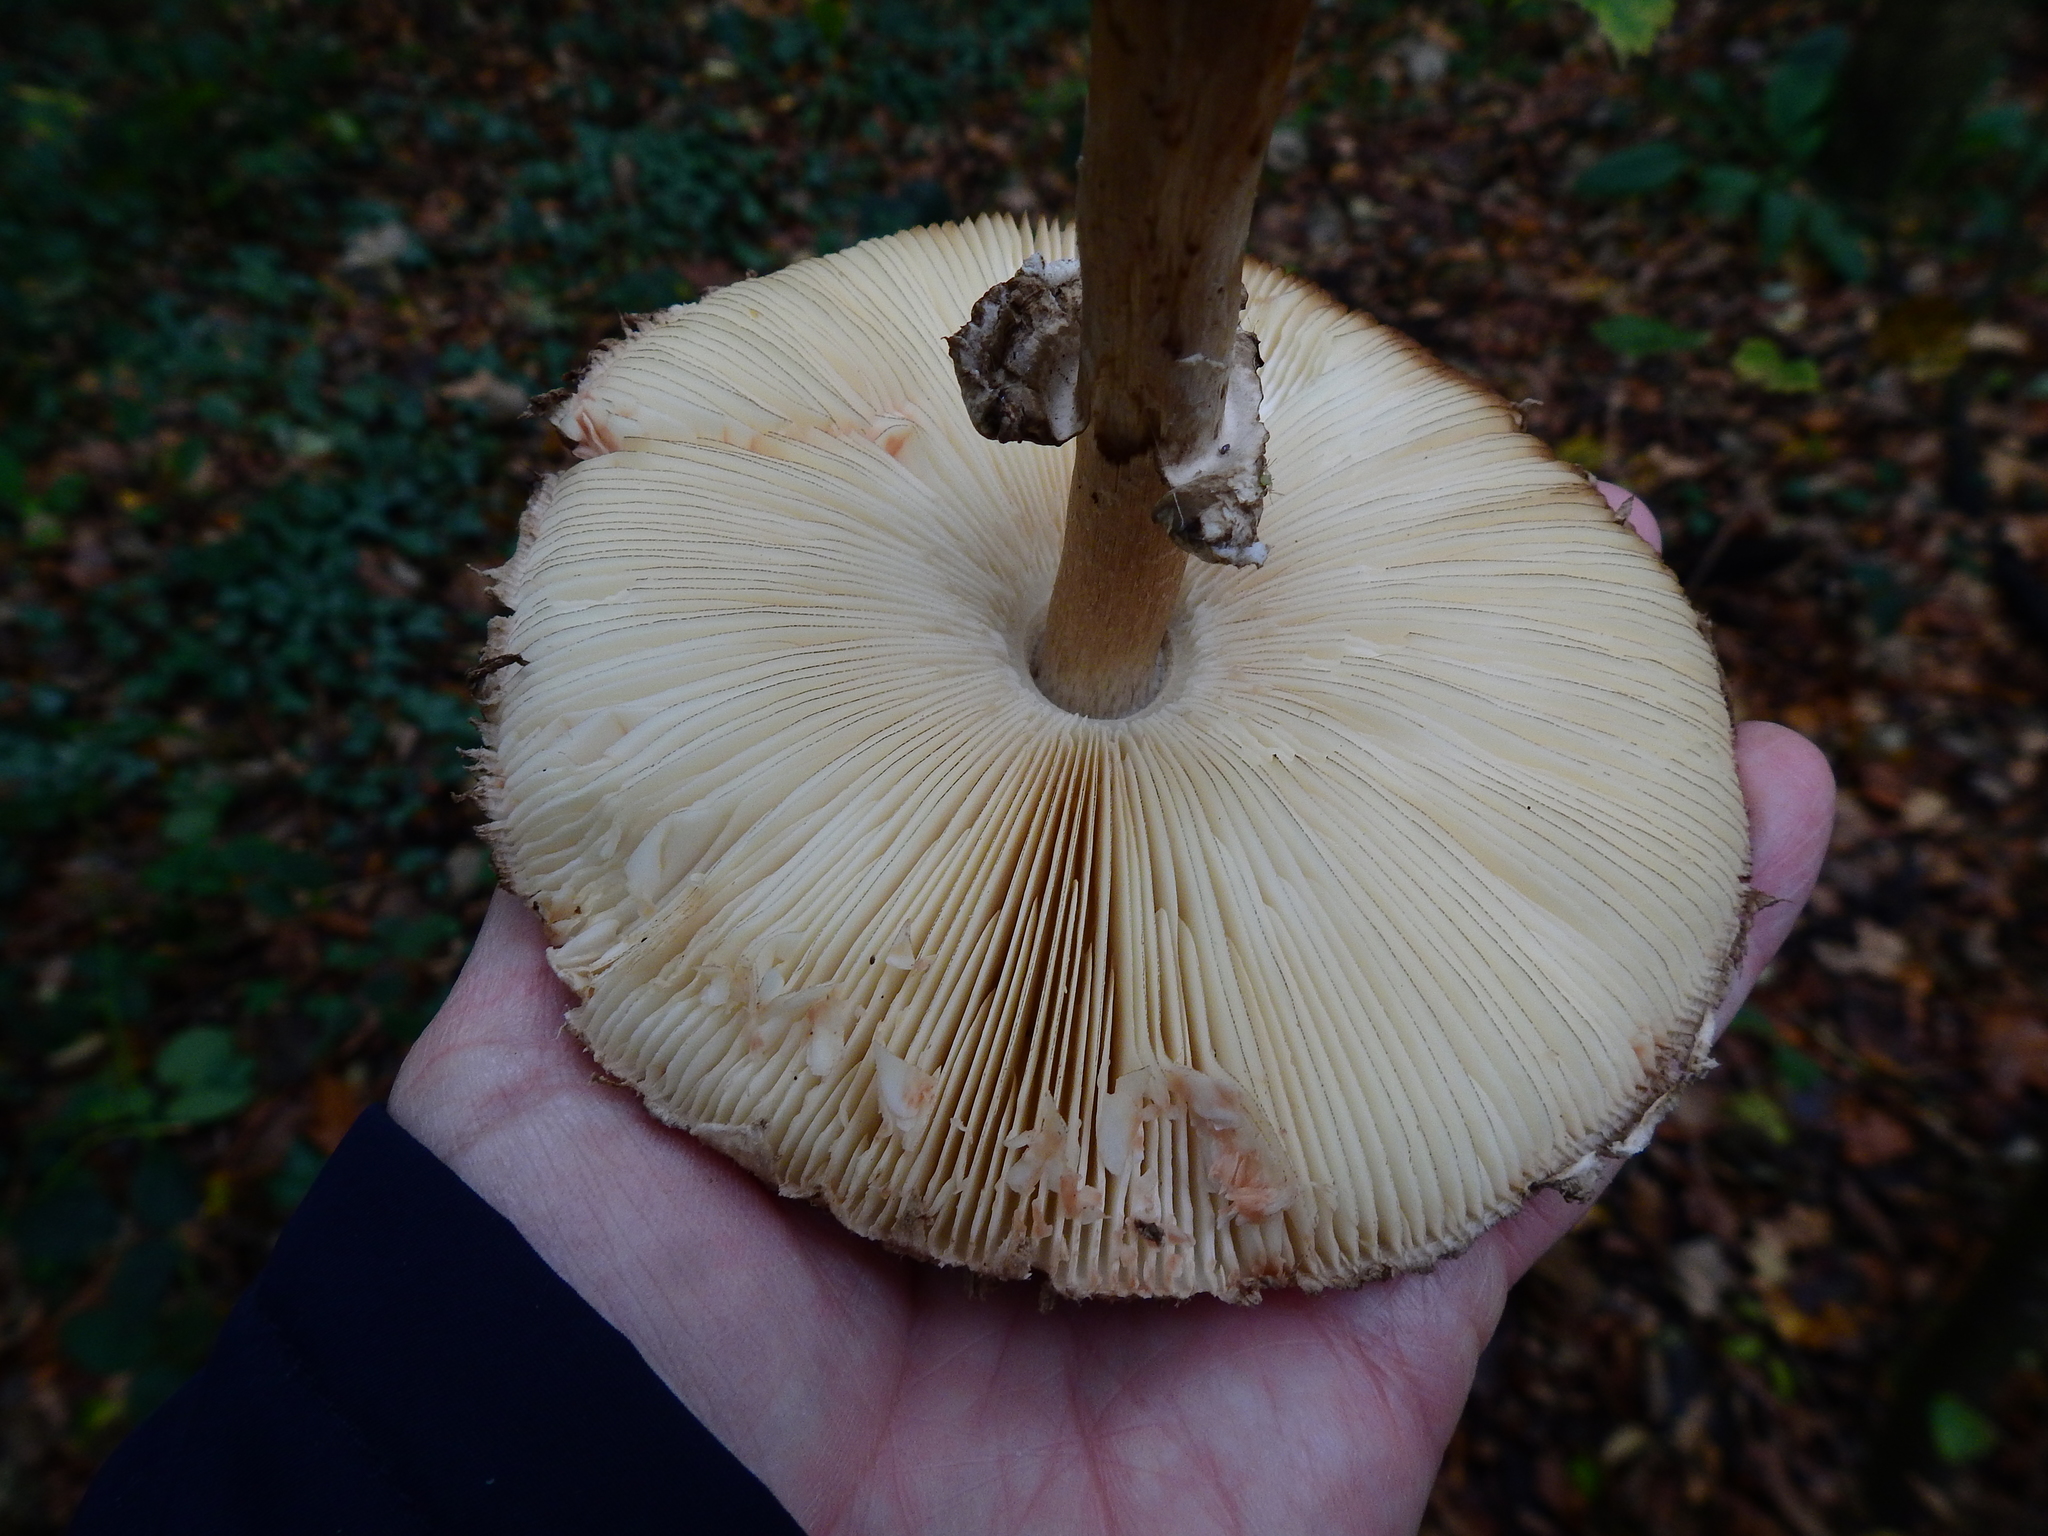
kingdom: Fungi
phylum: Basidiomycota
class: Agaricomycetes
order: Agaricales
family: Agaricaceae
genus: Chlorophyllum
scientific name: Chlorophyllum olivieri
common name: Conifer parasol
